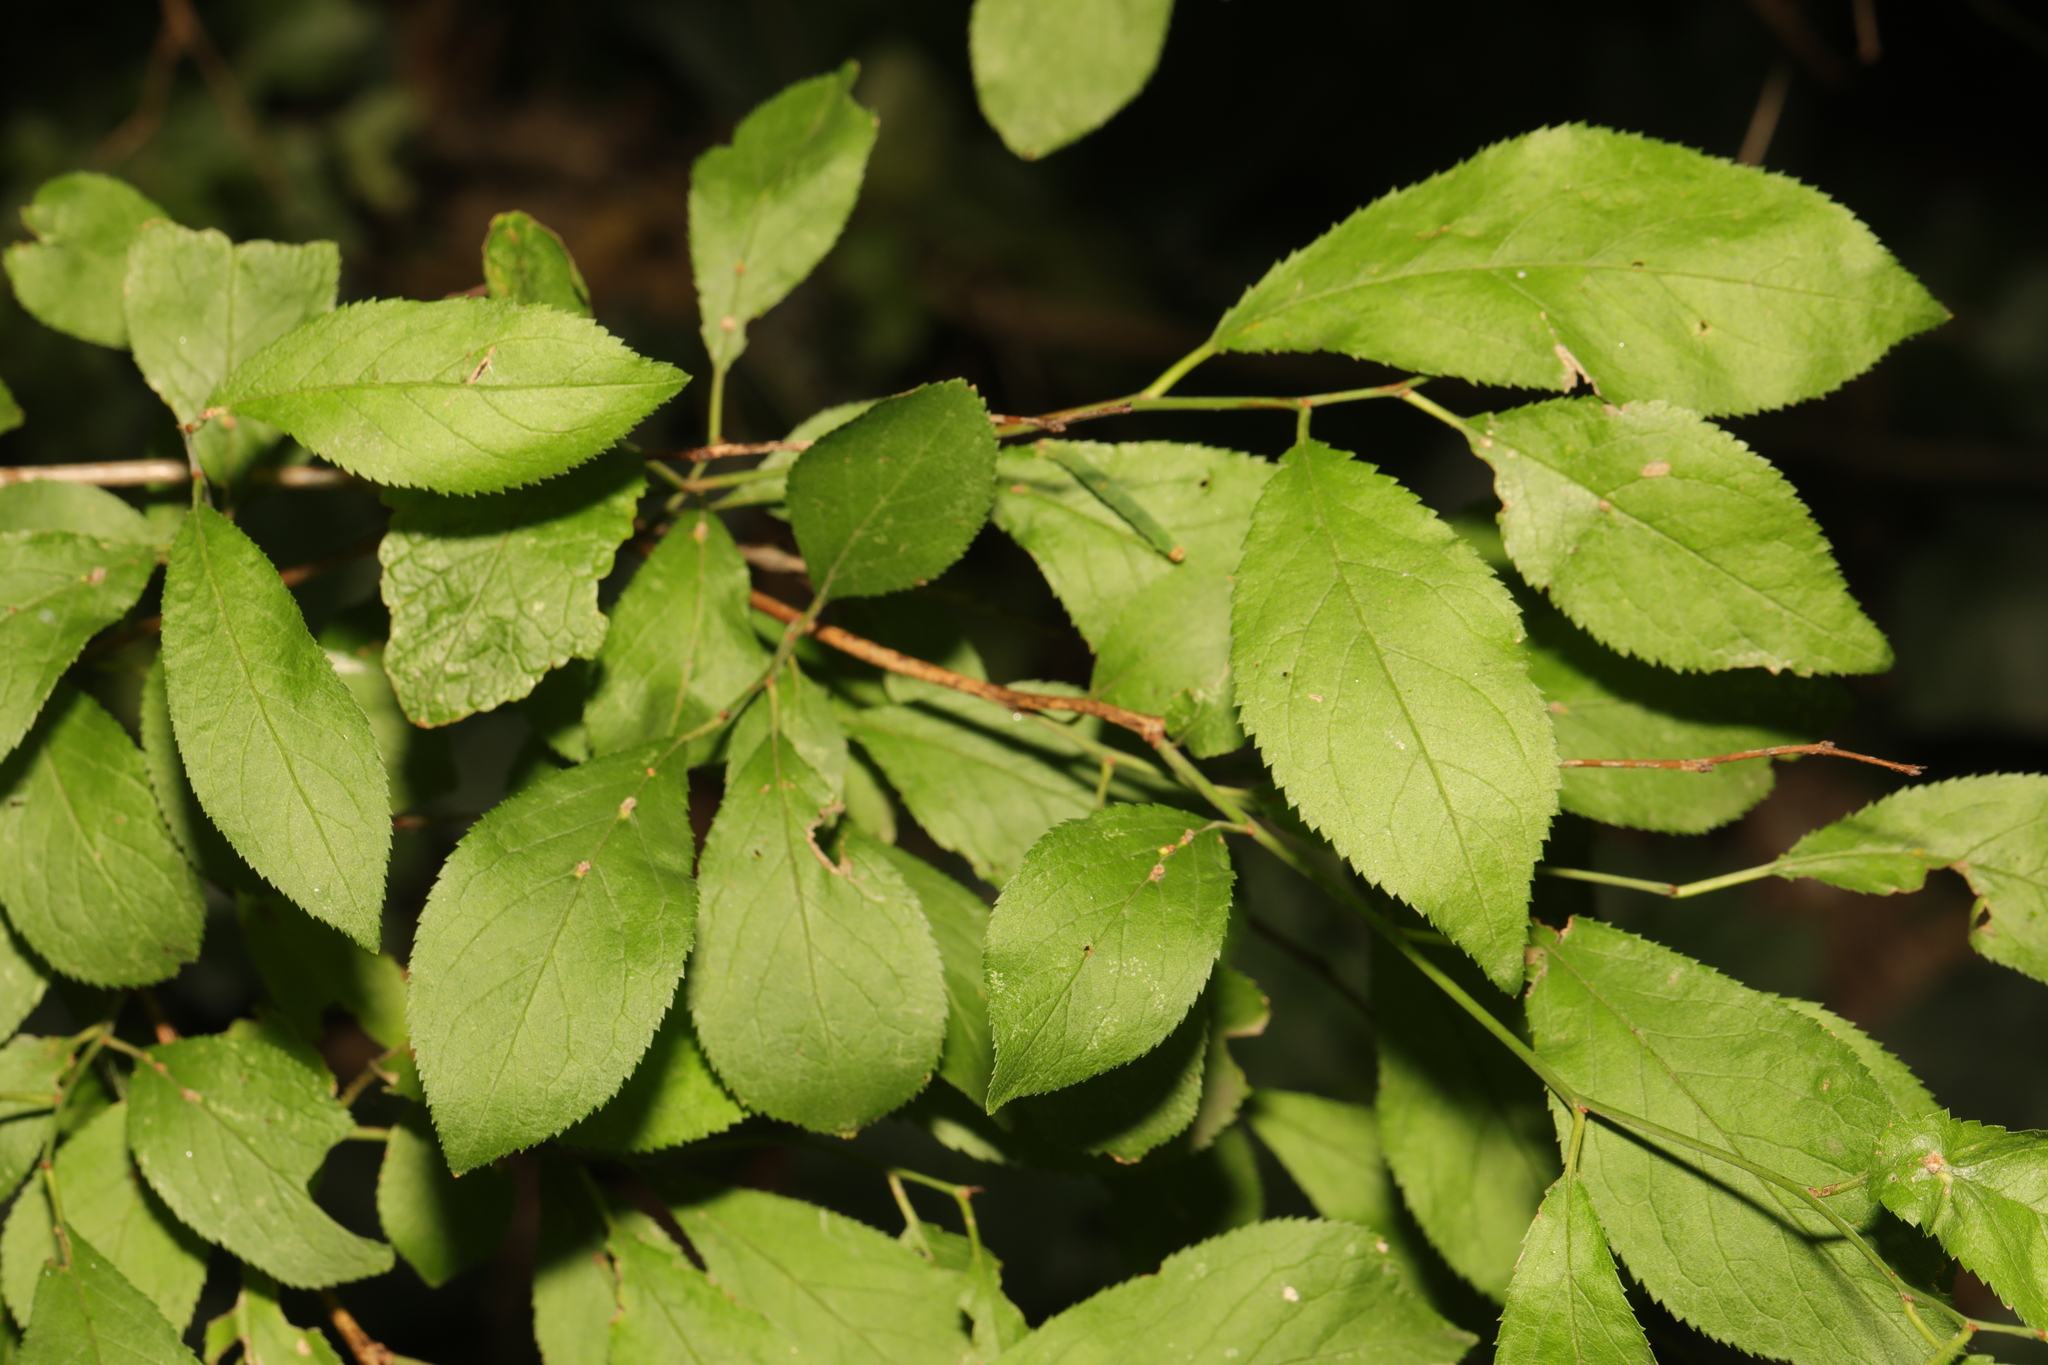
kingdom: Plantae
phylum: Tracheophyta
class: Magnoliopsida
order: Rosales
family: Rosaceae
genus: Prunus
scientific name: Prunus spinosa
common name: Blackthorn
